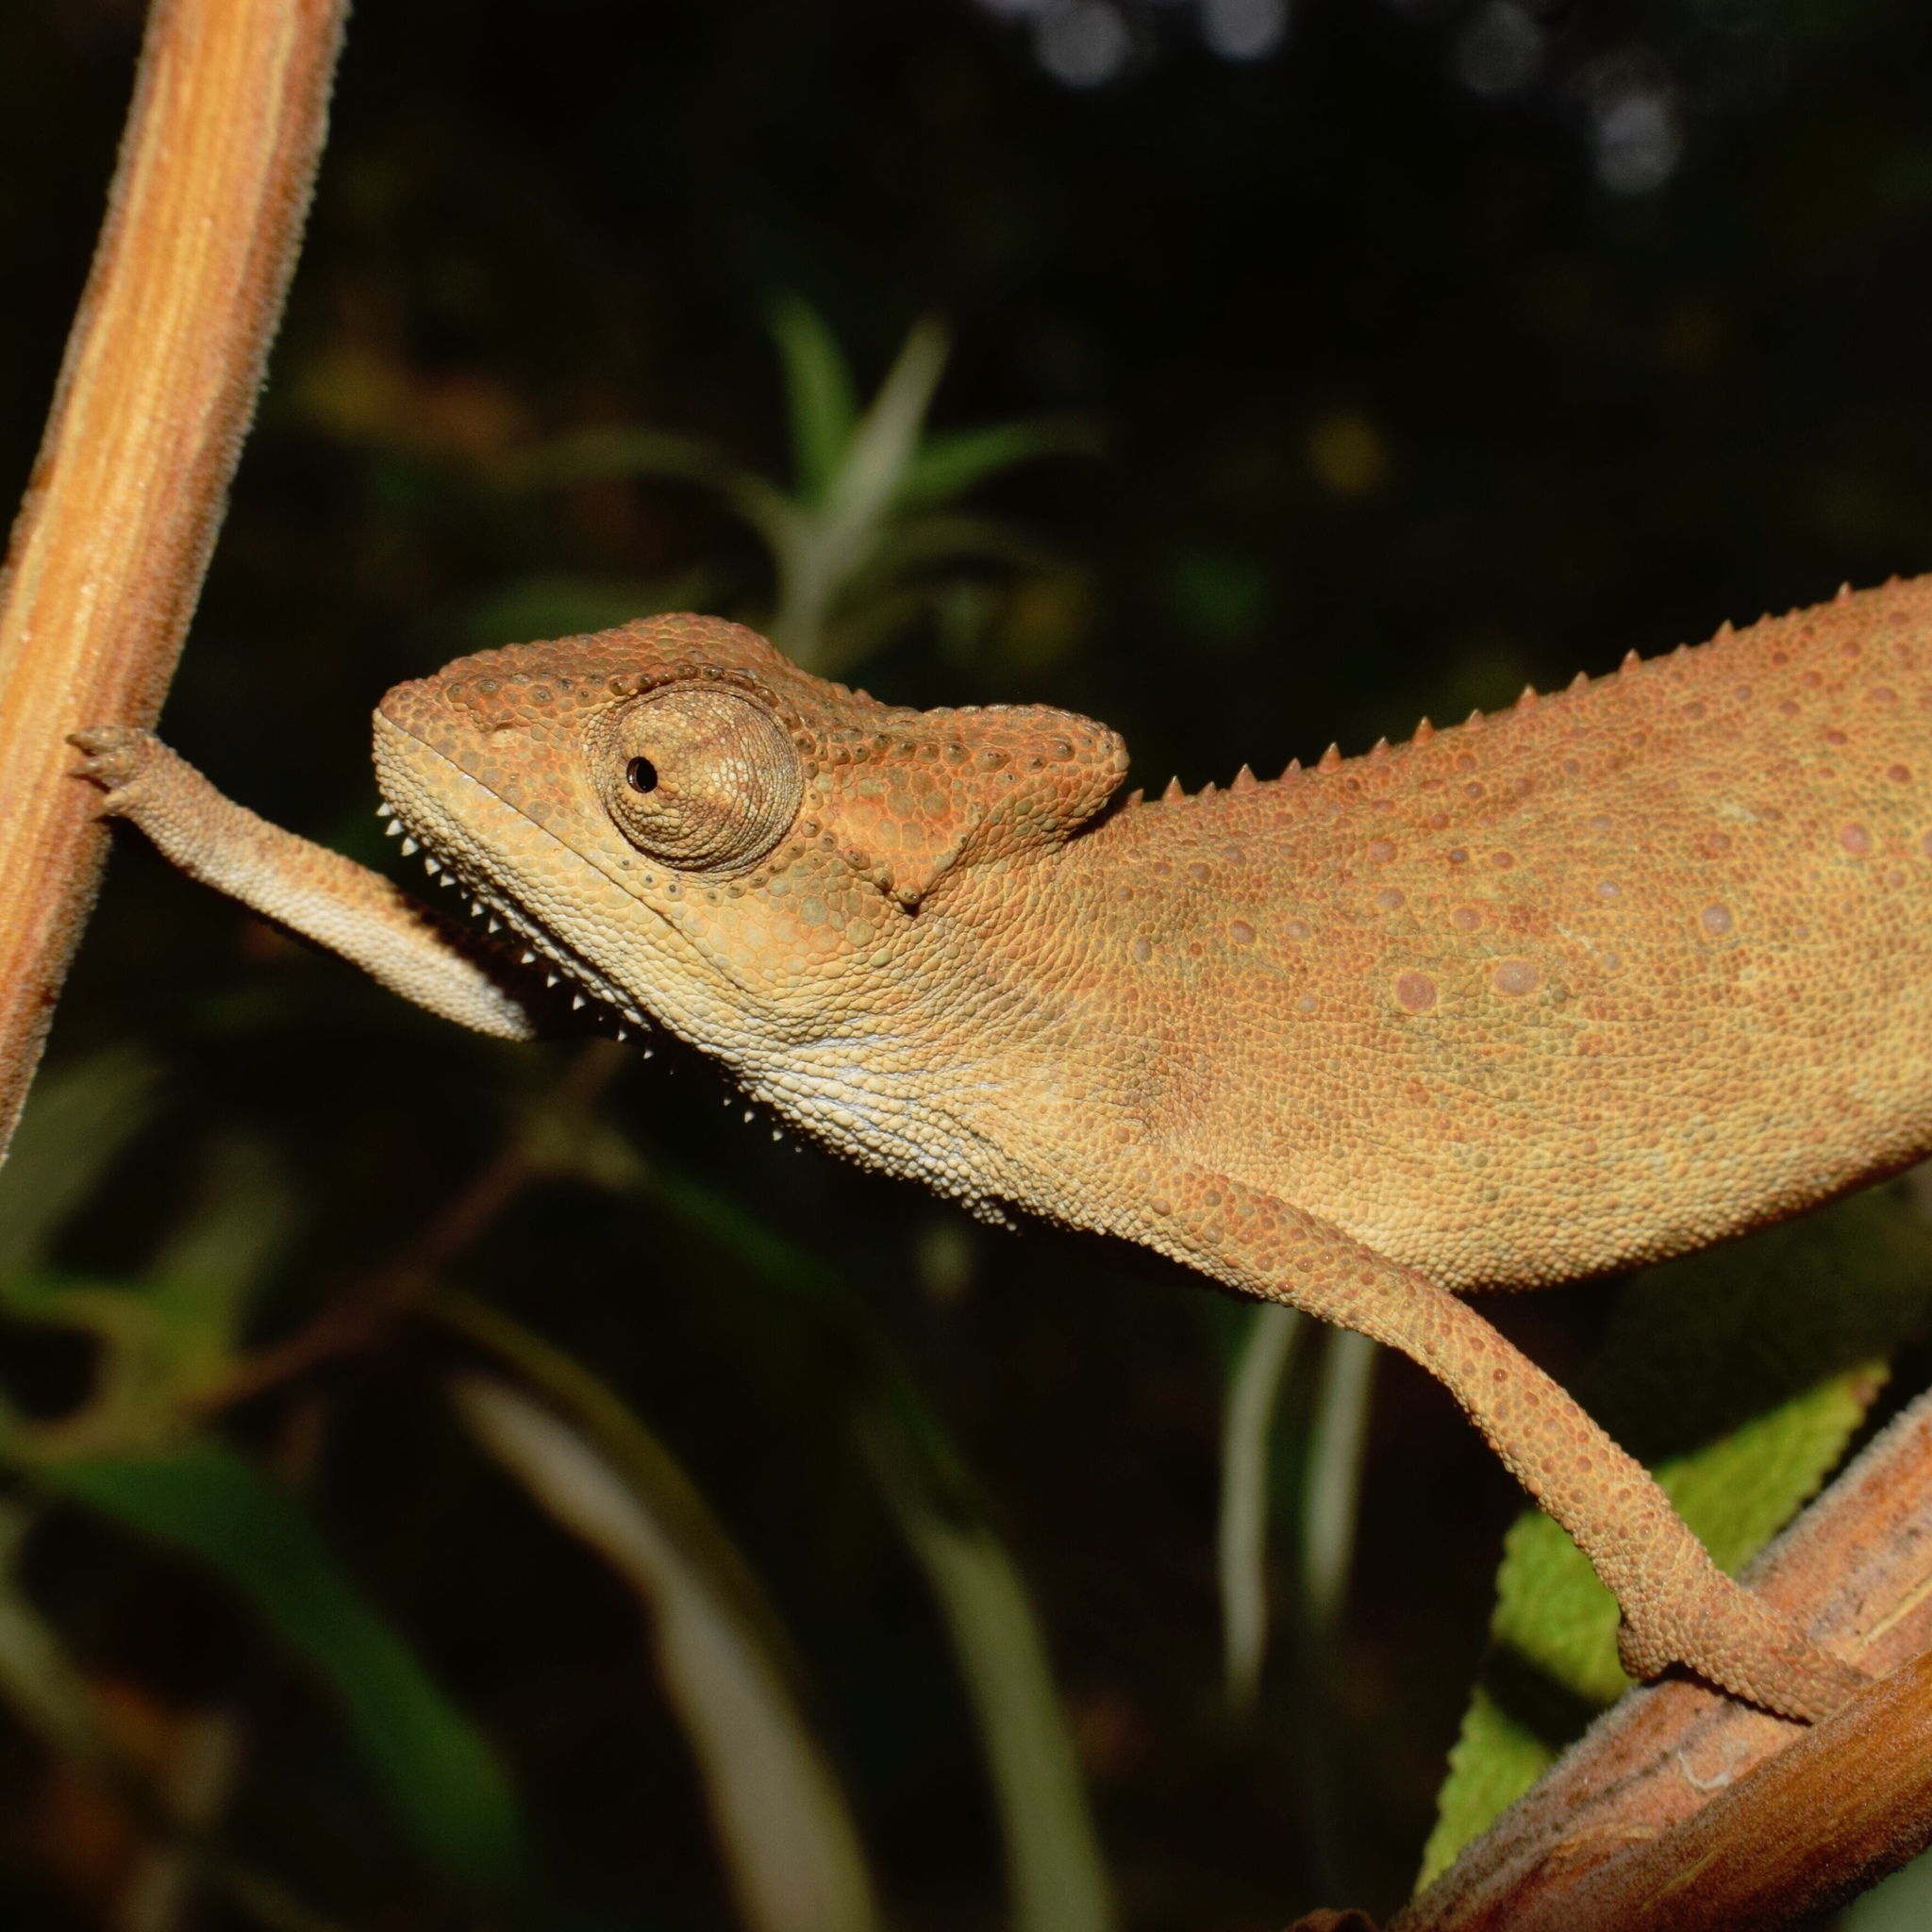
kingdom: Animalia
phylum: Chordata
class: Squamata
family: Chamaeleonidae
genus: Bradypodion
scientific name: Bradypodion melanocephalum
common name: Black-headed dwarf chameleon
